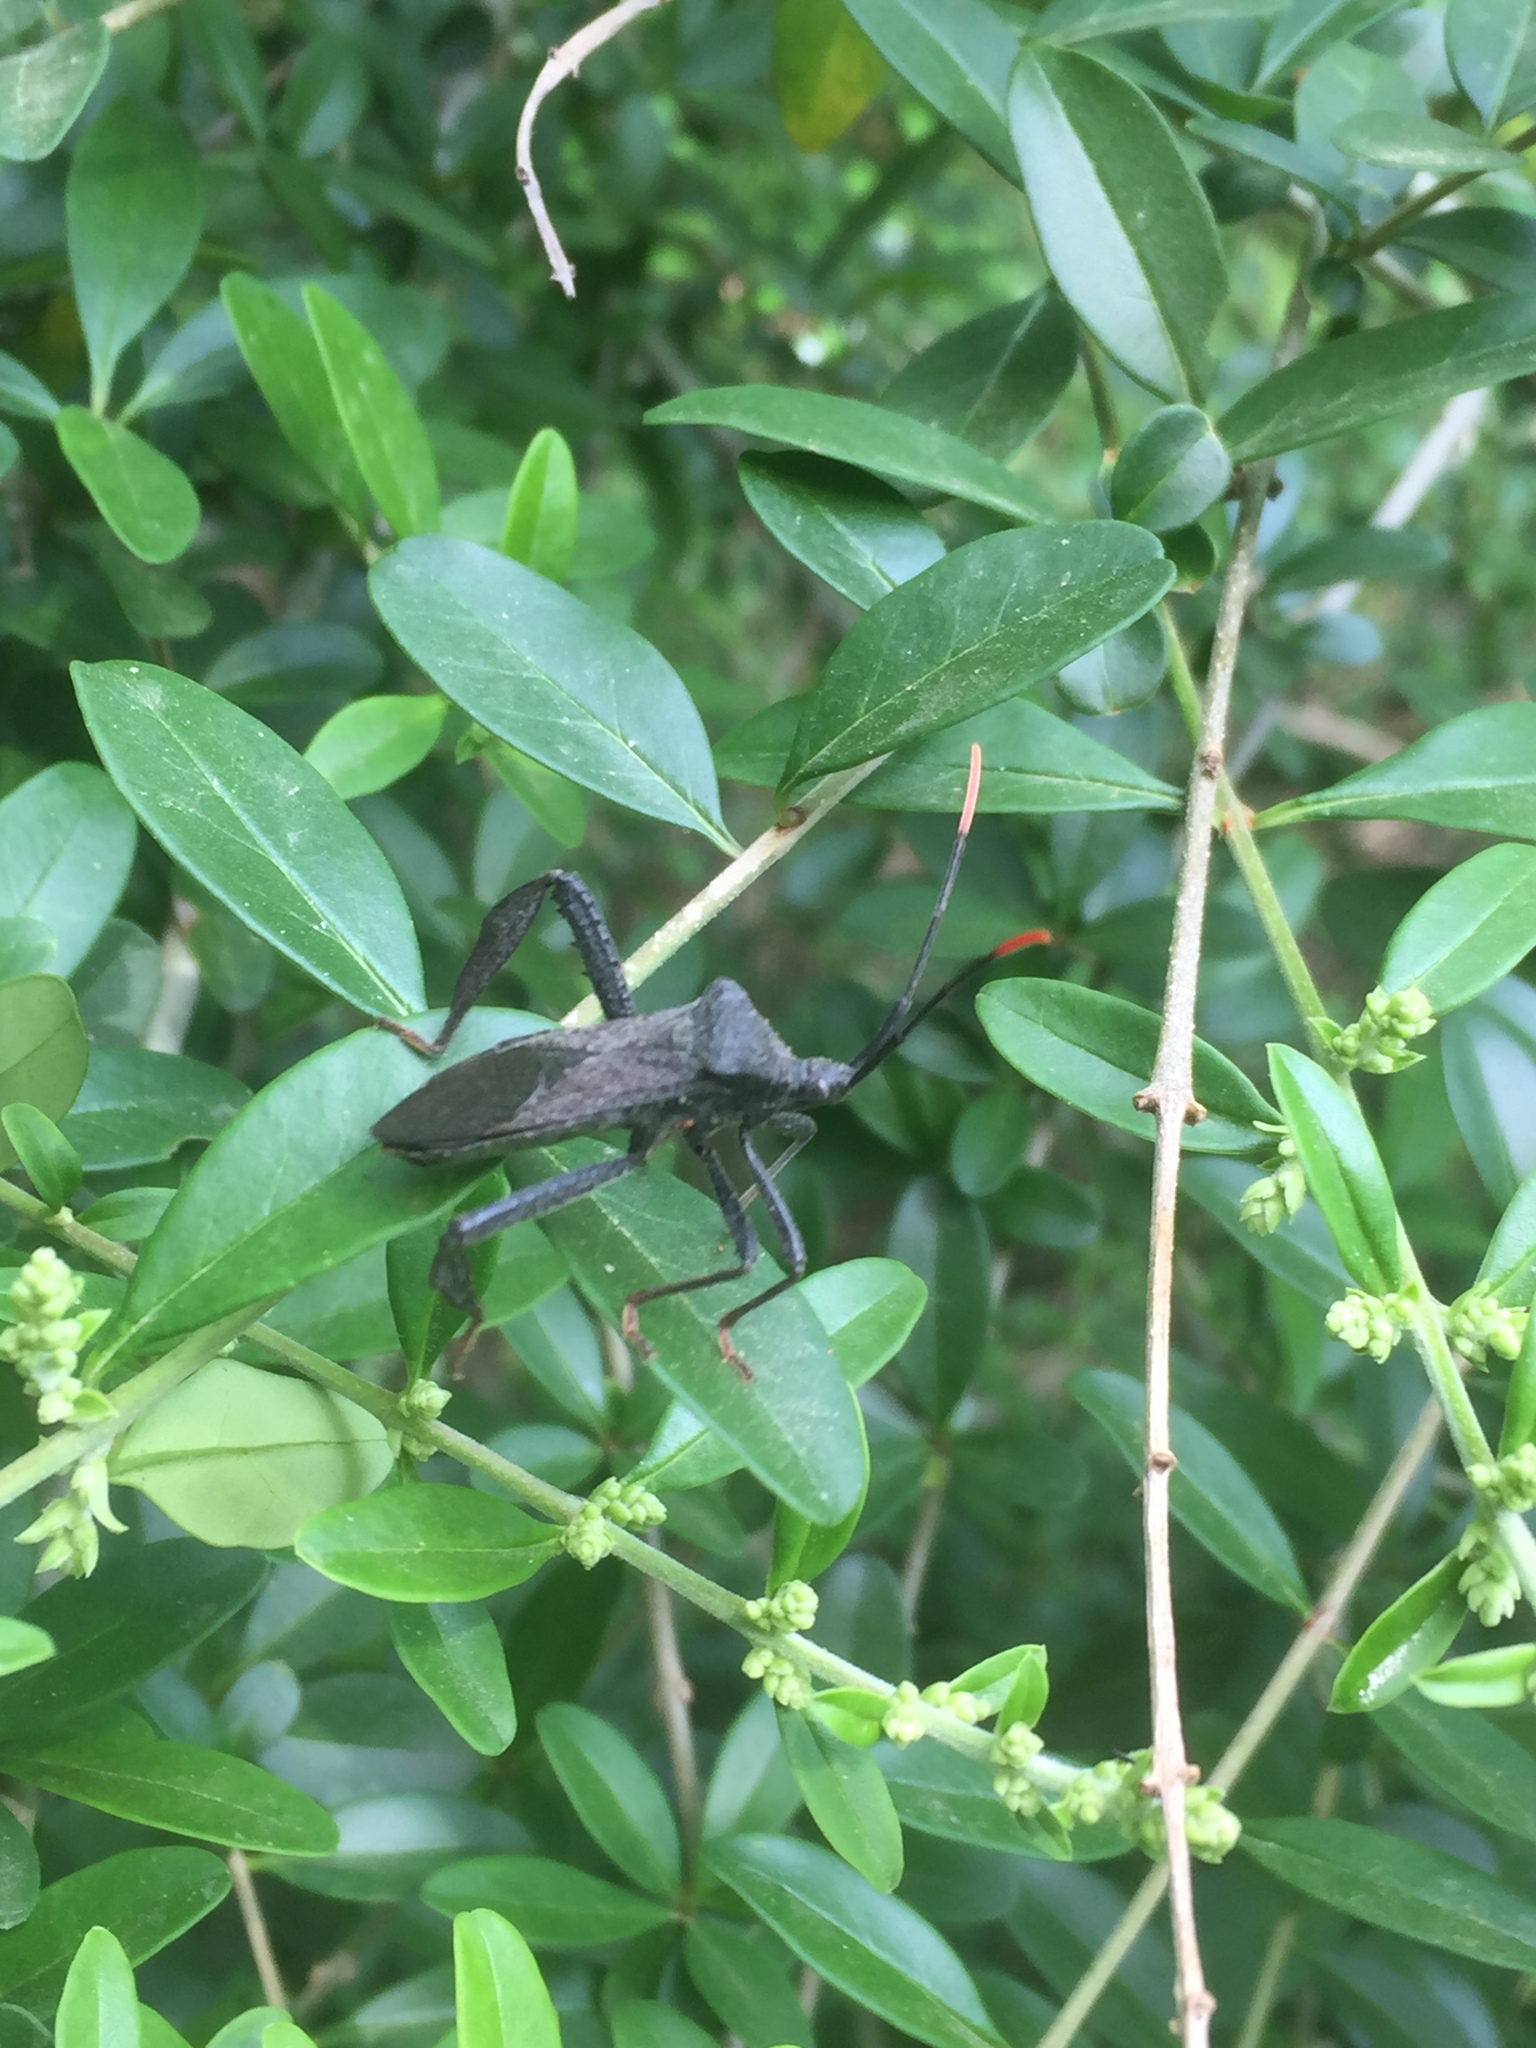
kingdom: Animalia
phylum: Arthropoda
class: Insecta
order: Hemiptera
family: Coreidae
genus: Acanthocephala
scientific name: Acanthocephala terminalis
